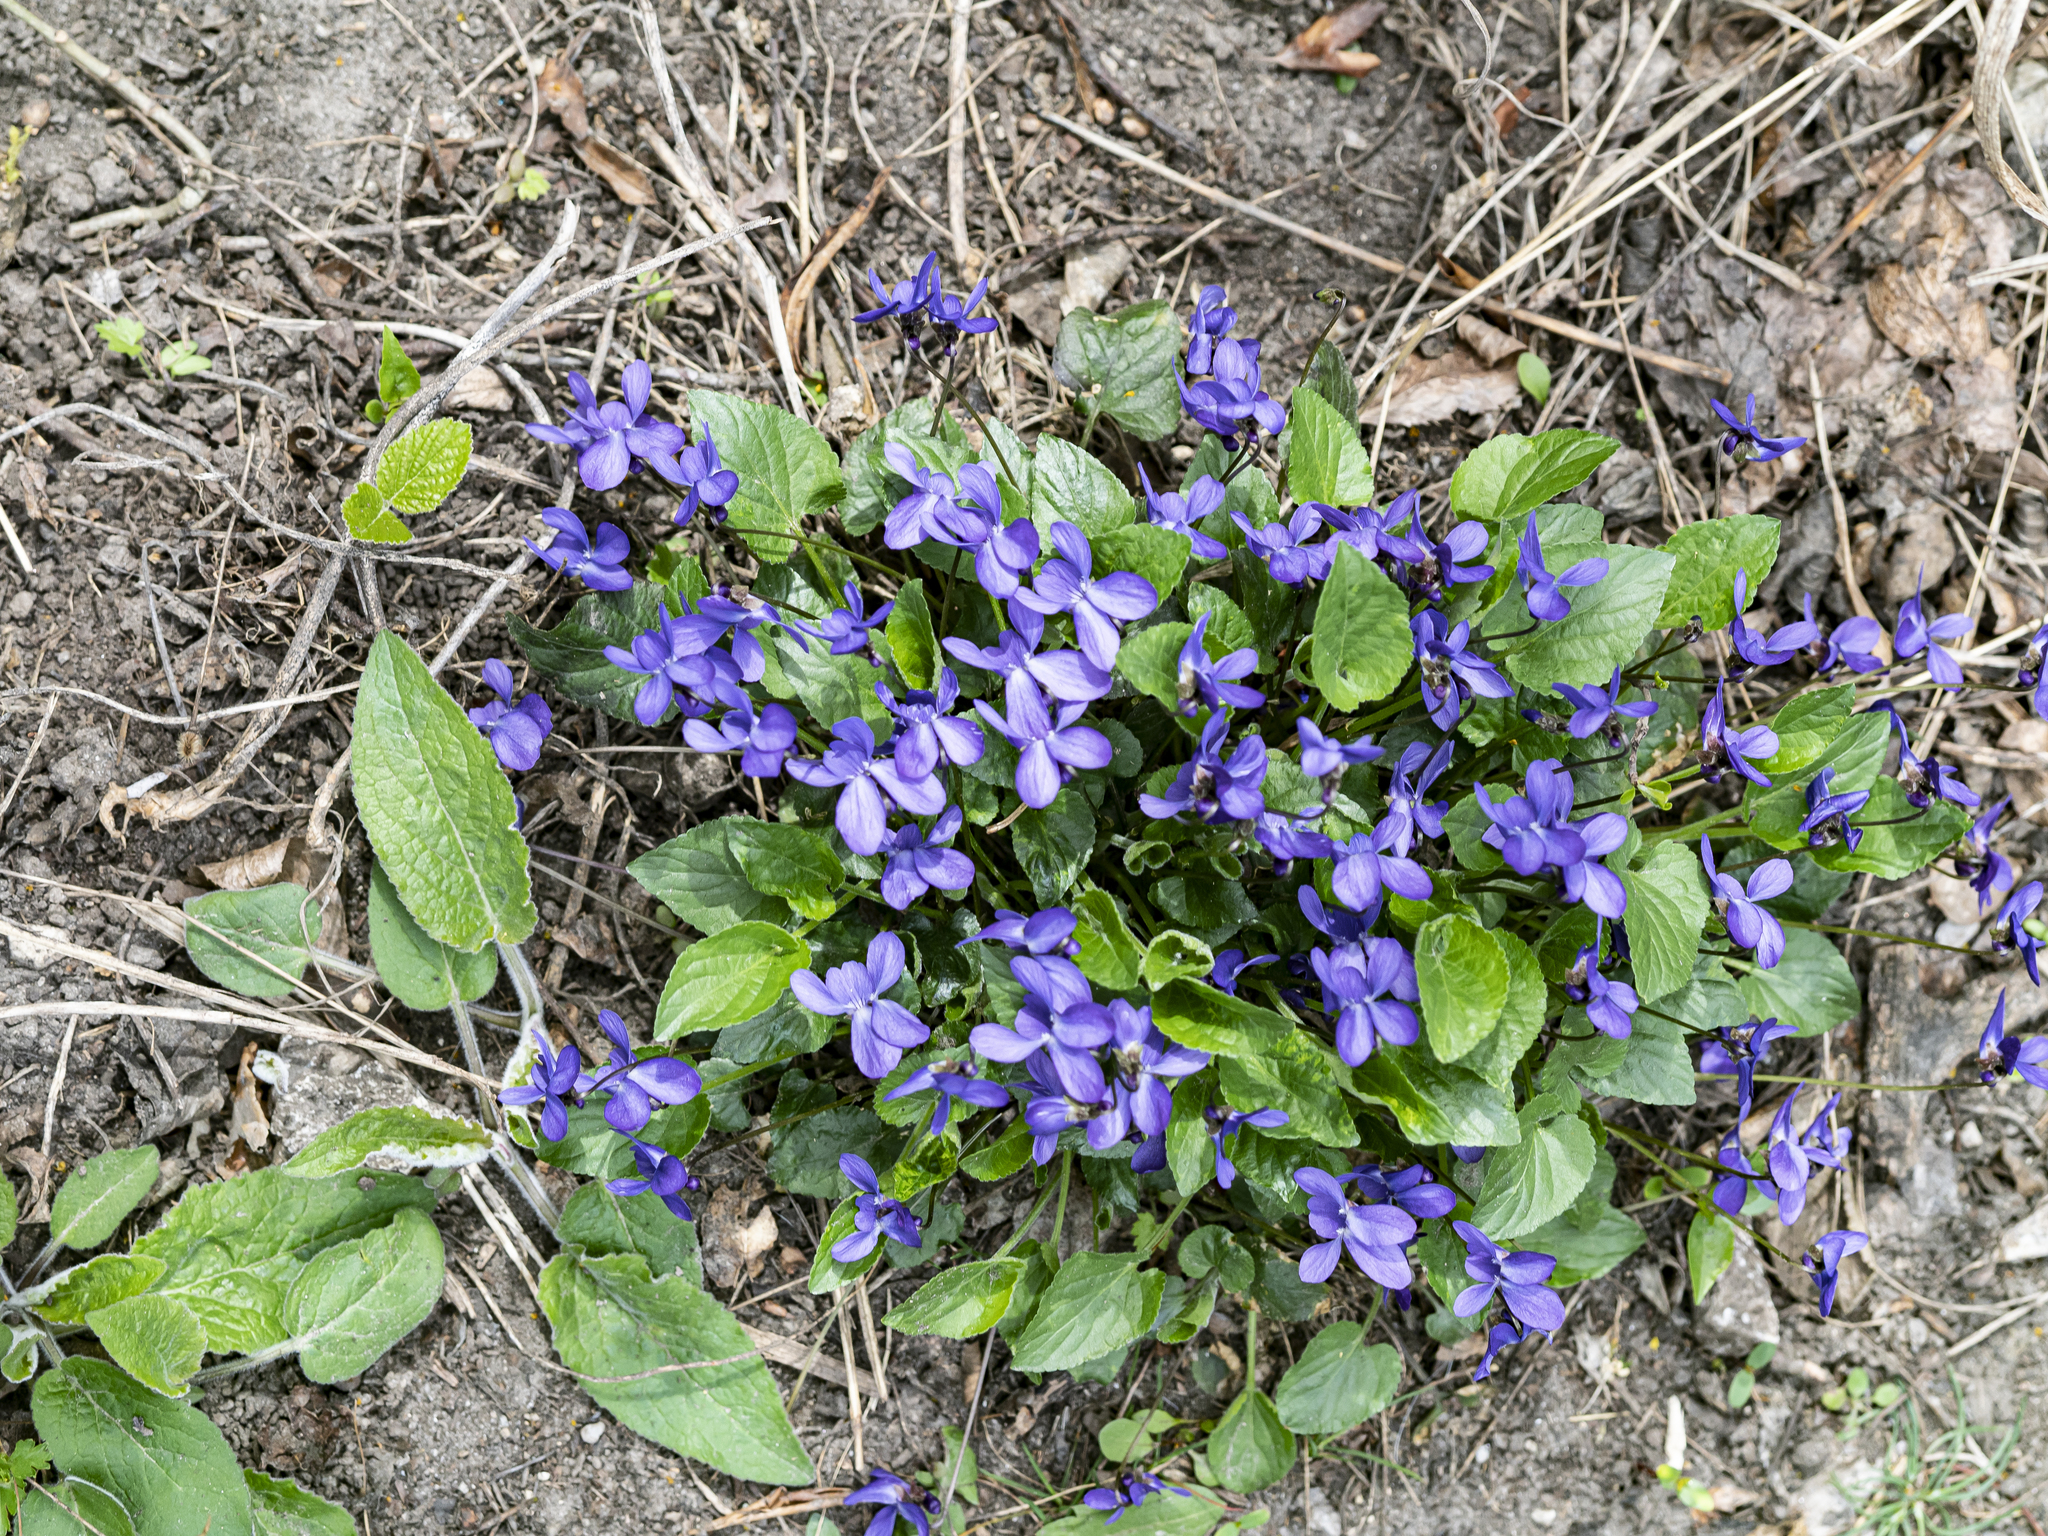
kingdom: Plantae
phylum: Tracheophyta
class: Magnoliopsida
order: Malpighiales
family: Violaceae
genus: Viola
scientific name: Viola ambigua
